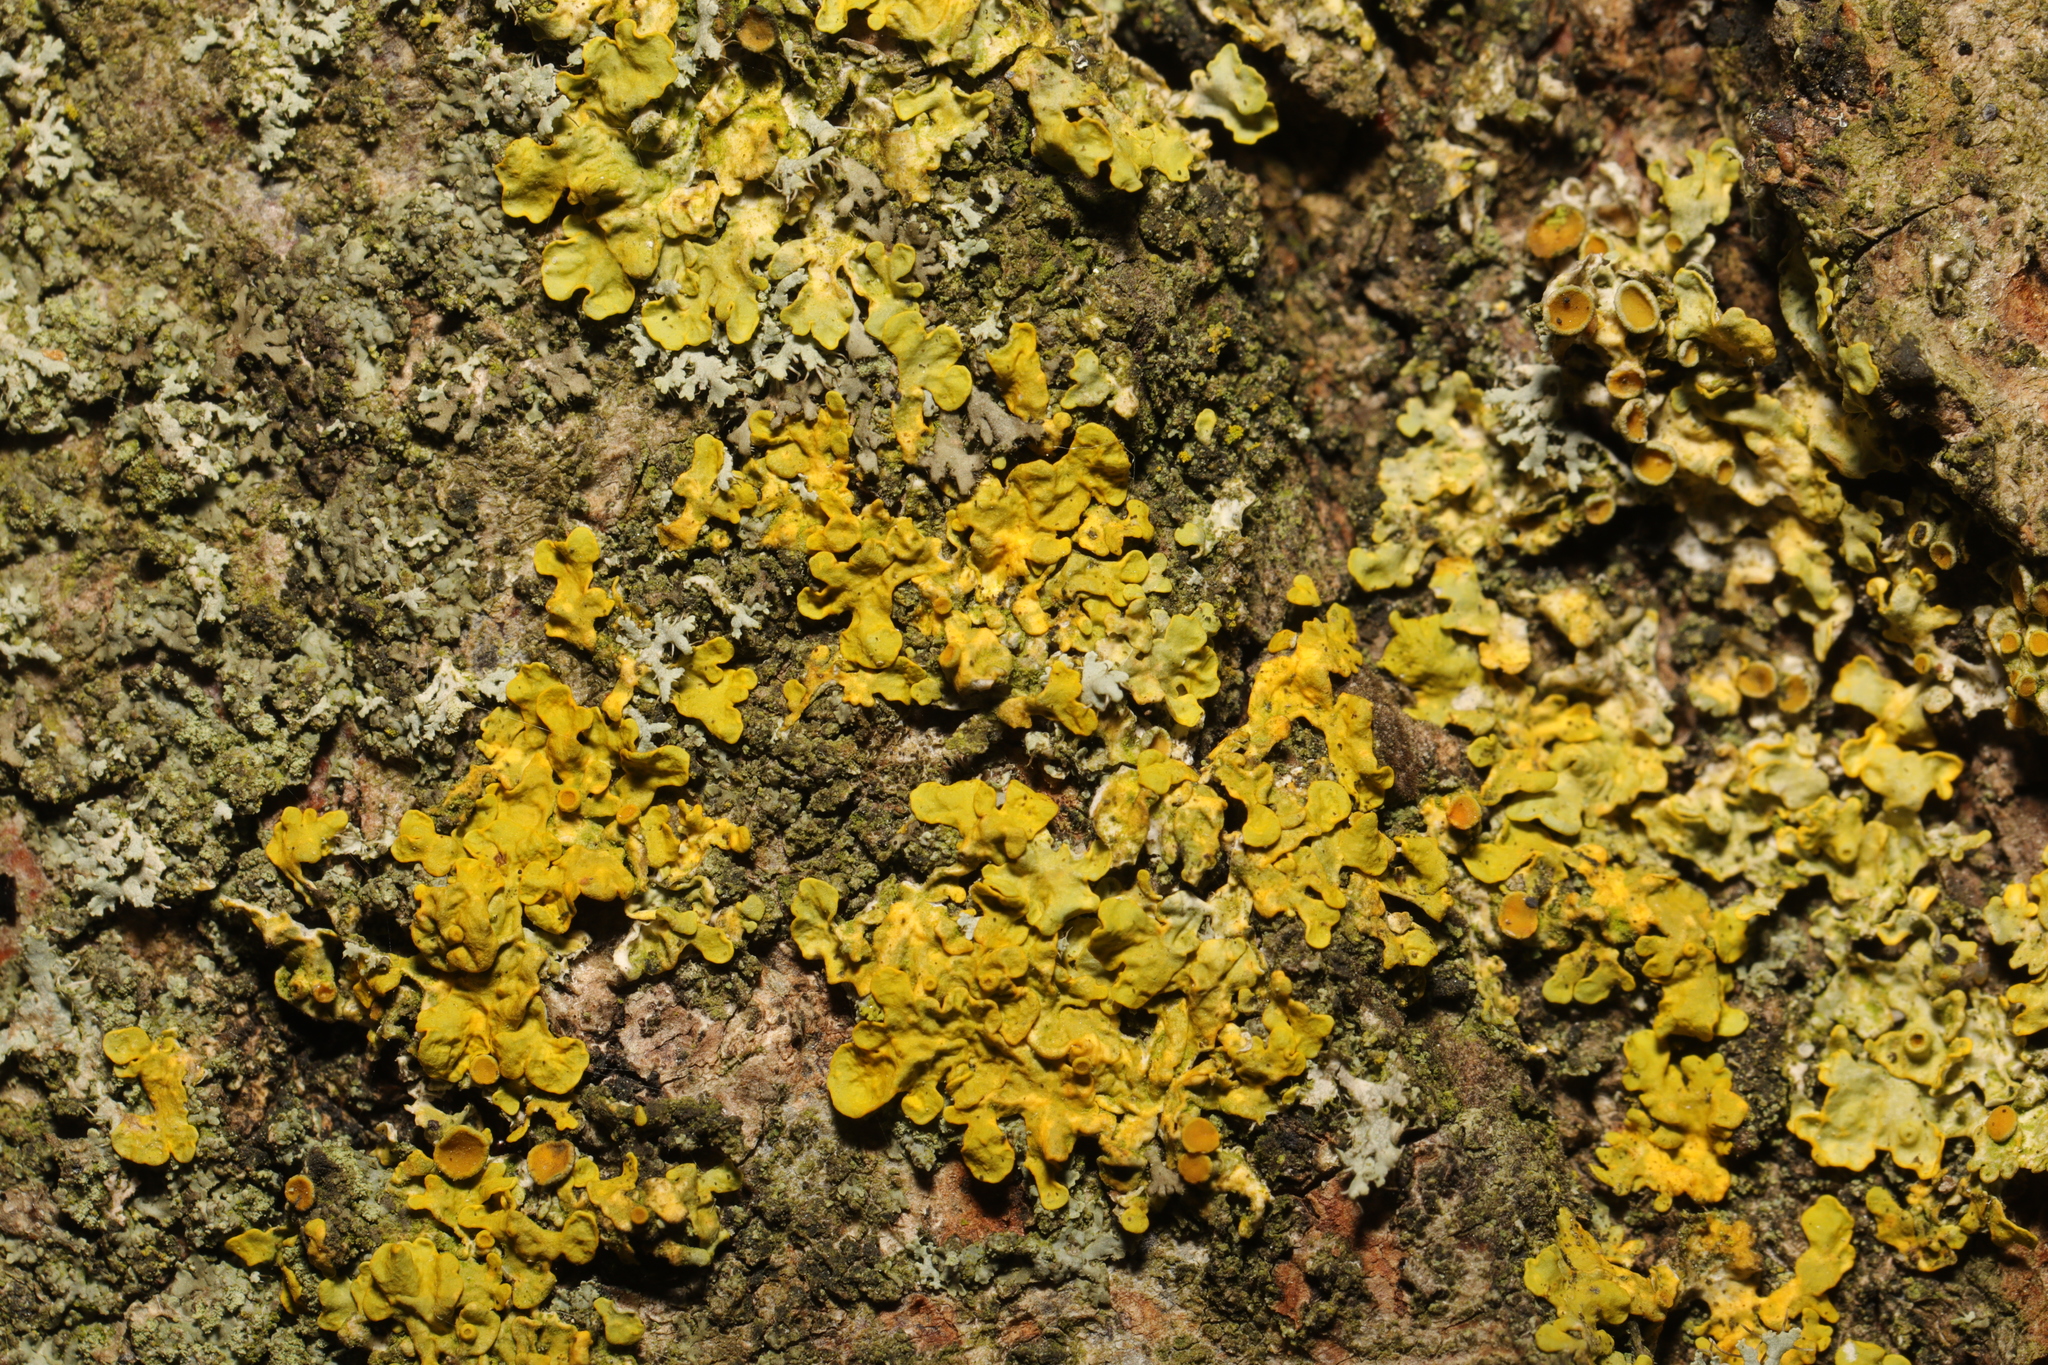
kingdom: Fungi
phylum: Ascomycota
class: Lecanoromycetes
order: Teloschistales
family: Teloschistaceae
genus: Xanthoria
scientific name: Xanthoria parietina
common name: Common orange lichen
